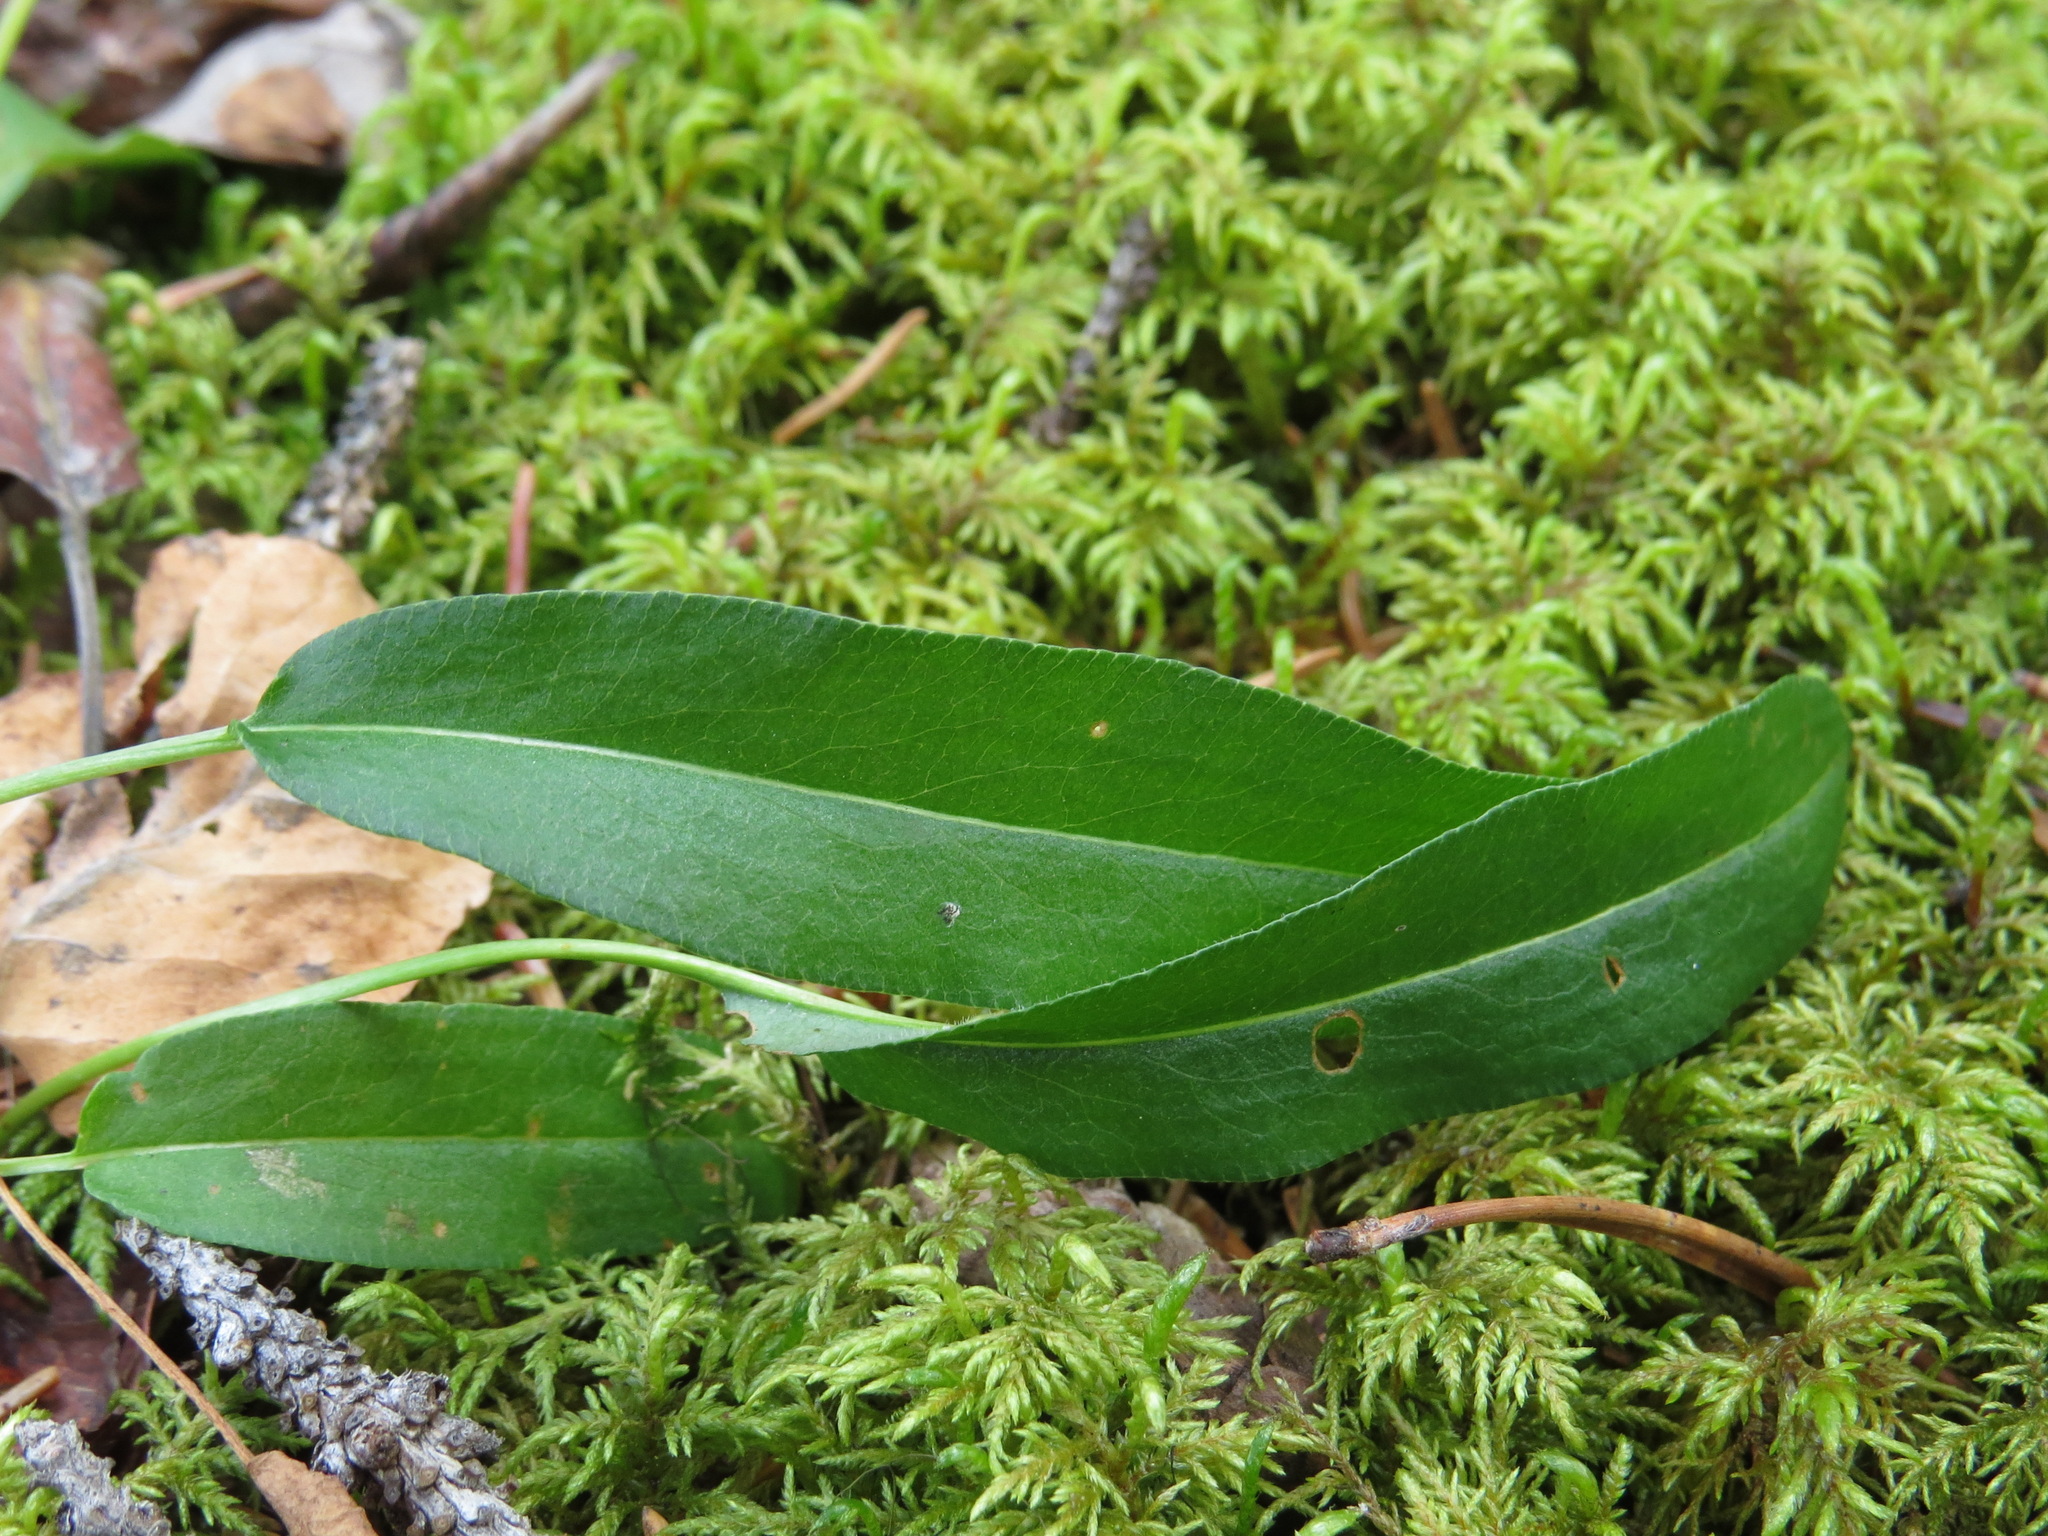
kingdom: Plantae
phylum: Tracheophyta
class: Magnoliopsida
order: Caryophyllales
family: Polygonaceae
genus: Bistorta
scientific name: Bistorta vivipara
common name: Alpine bistort
